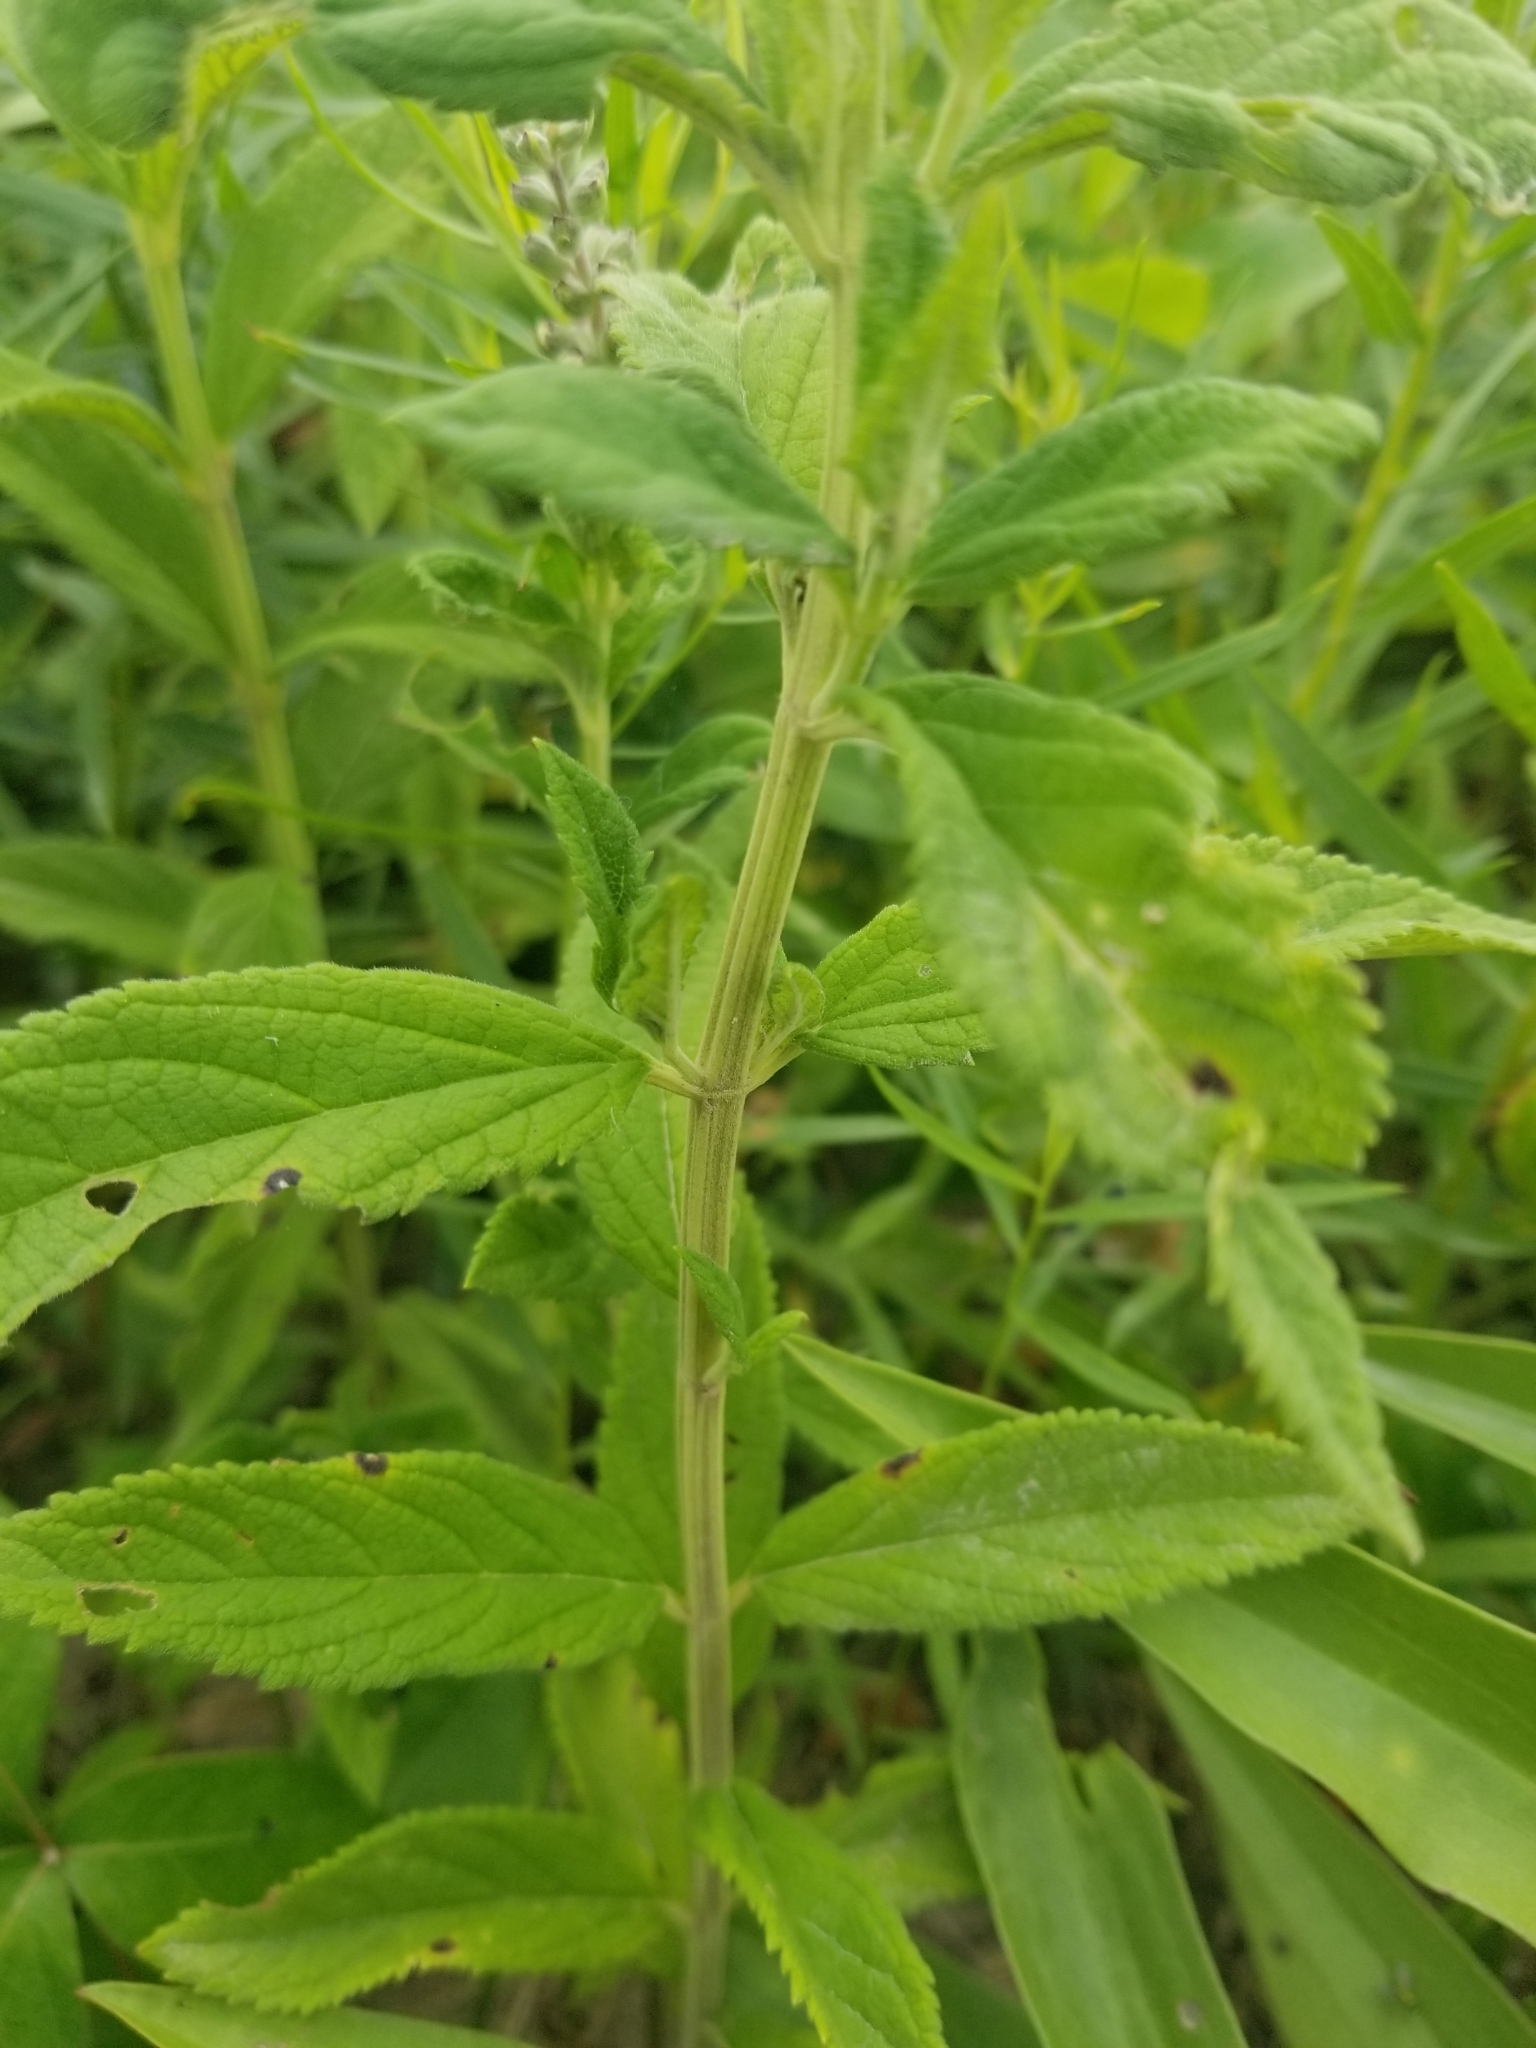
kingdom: Plantae
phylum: Tracheophyta
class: Magnoliopsida
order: Lamiales
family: Lamiaceae
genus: Teucrium
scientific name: Teucrium canadense
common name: American germander
